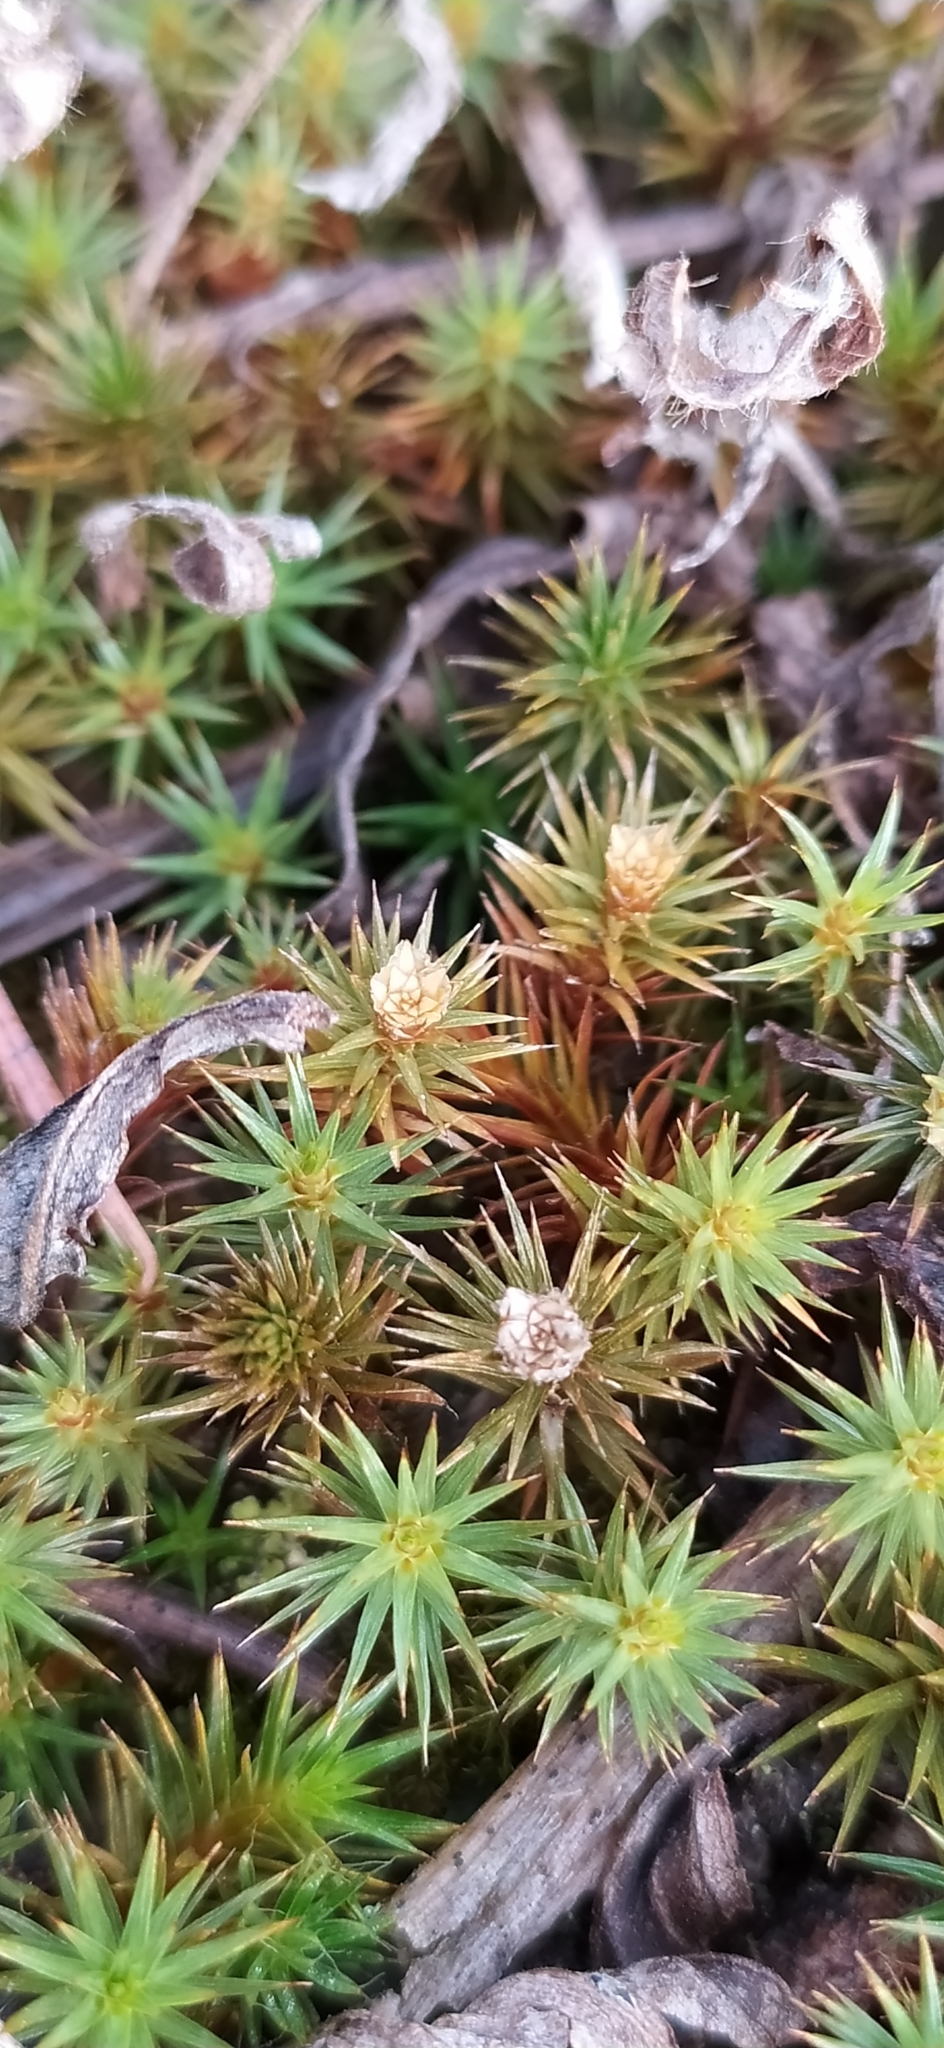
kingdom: Plantae
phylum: Bryophyta
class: Polytrichopsida
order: Polytrichales
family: Polytrichaceae
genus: Polytrichum
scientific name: Polytrichum juniperinum
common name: Juniper haircap moss
